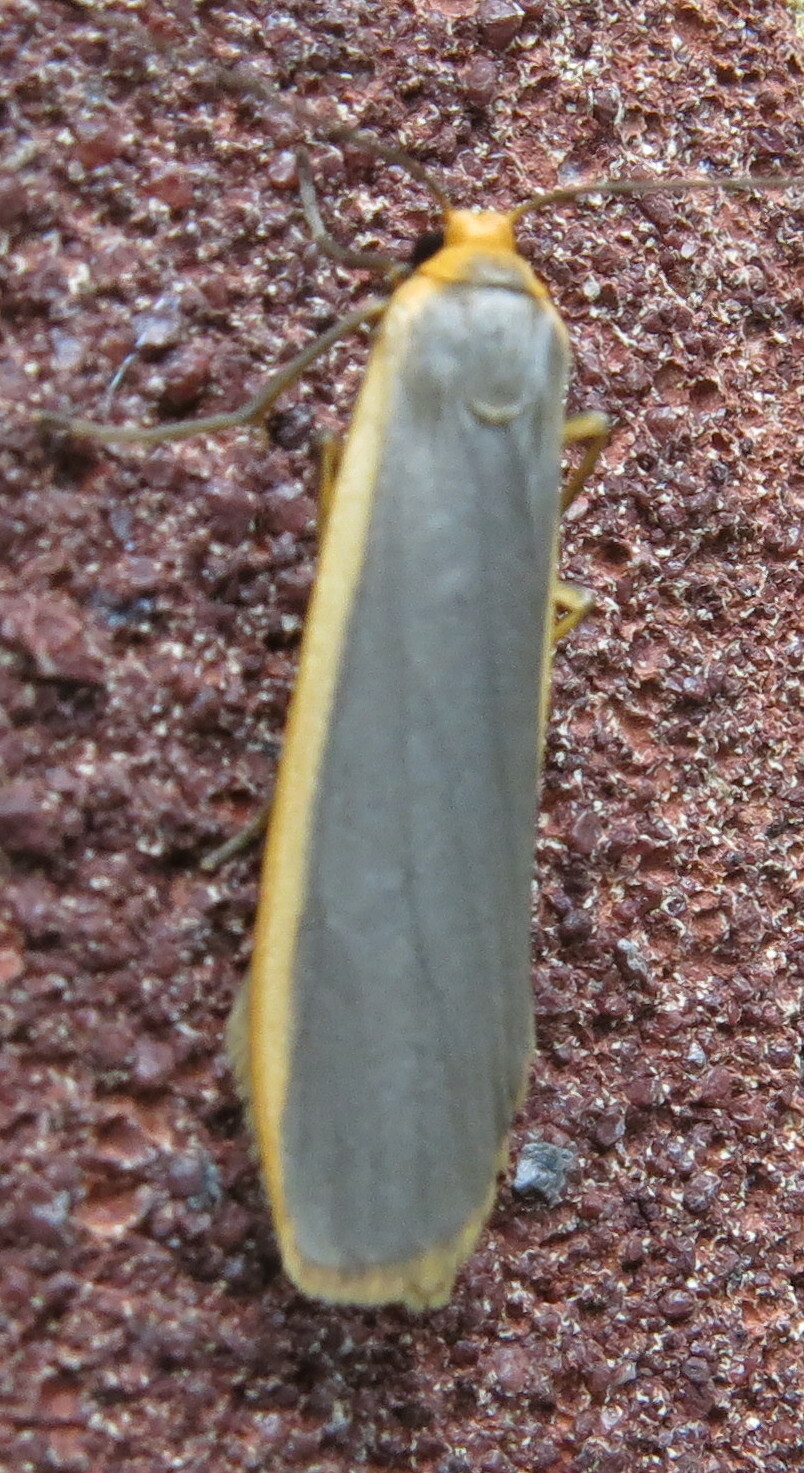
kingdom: Animalia
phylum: Arthropoda
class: Insecta
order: Lepidoptera
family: Erebidae
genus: Nyea
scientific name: Nyea lurideola
